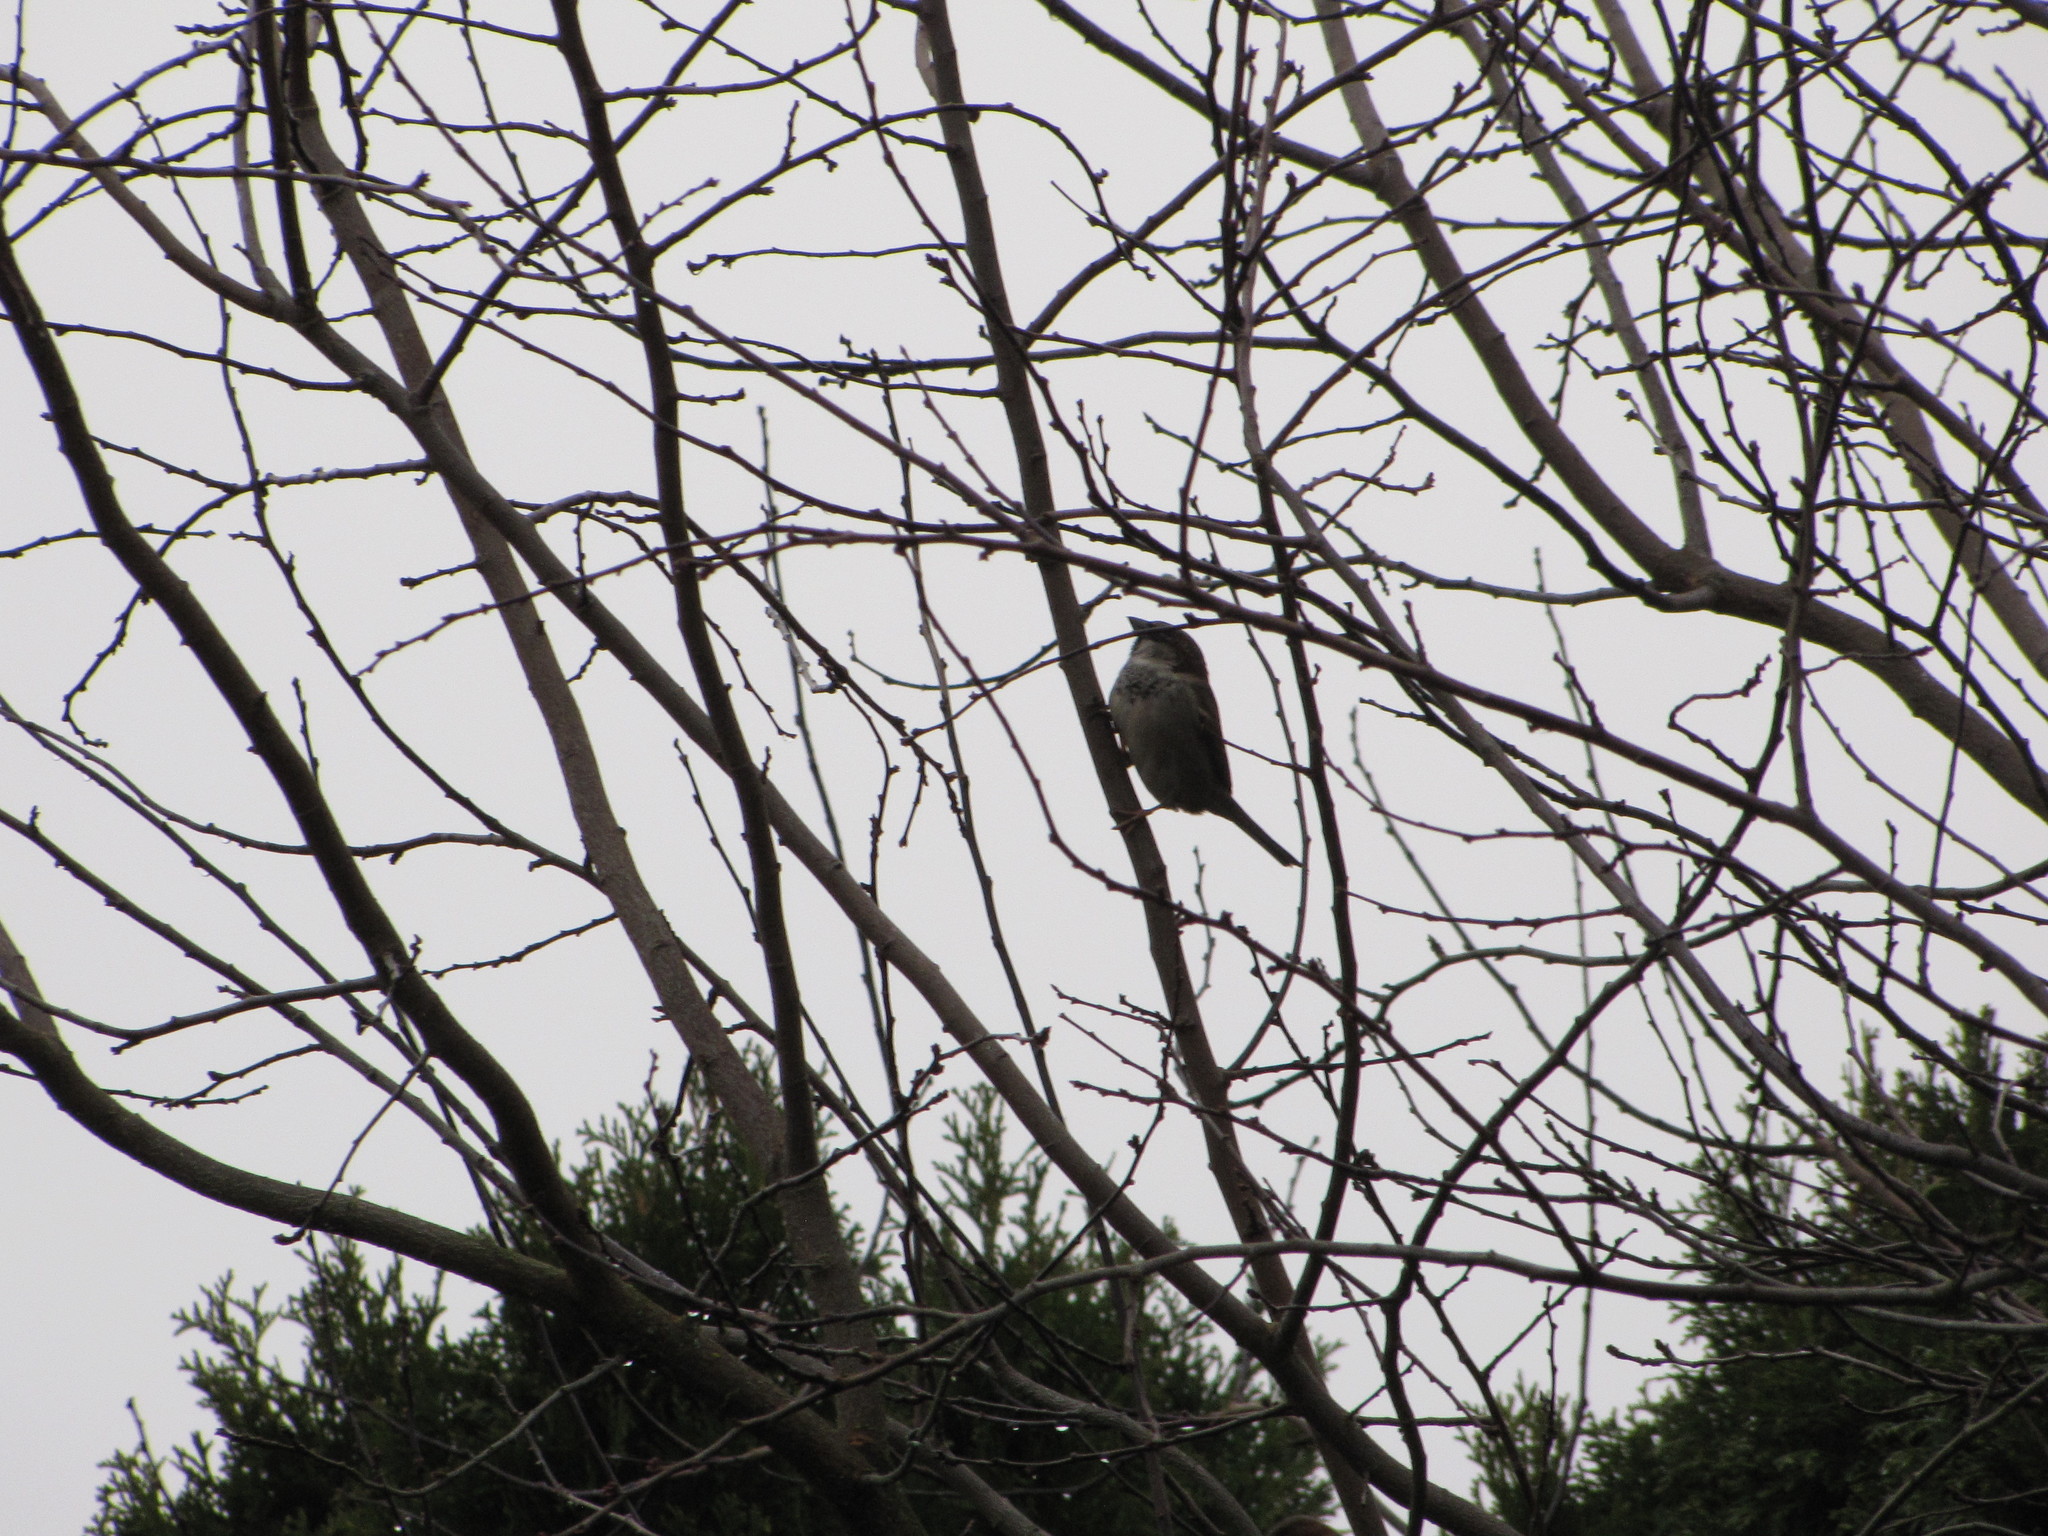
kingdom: Animalia
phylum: Chordata
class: Aves
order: Passeriformes
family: Passeridae
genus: Passer
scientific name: Passer domesticus
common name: House sparrow
